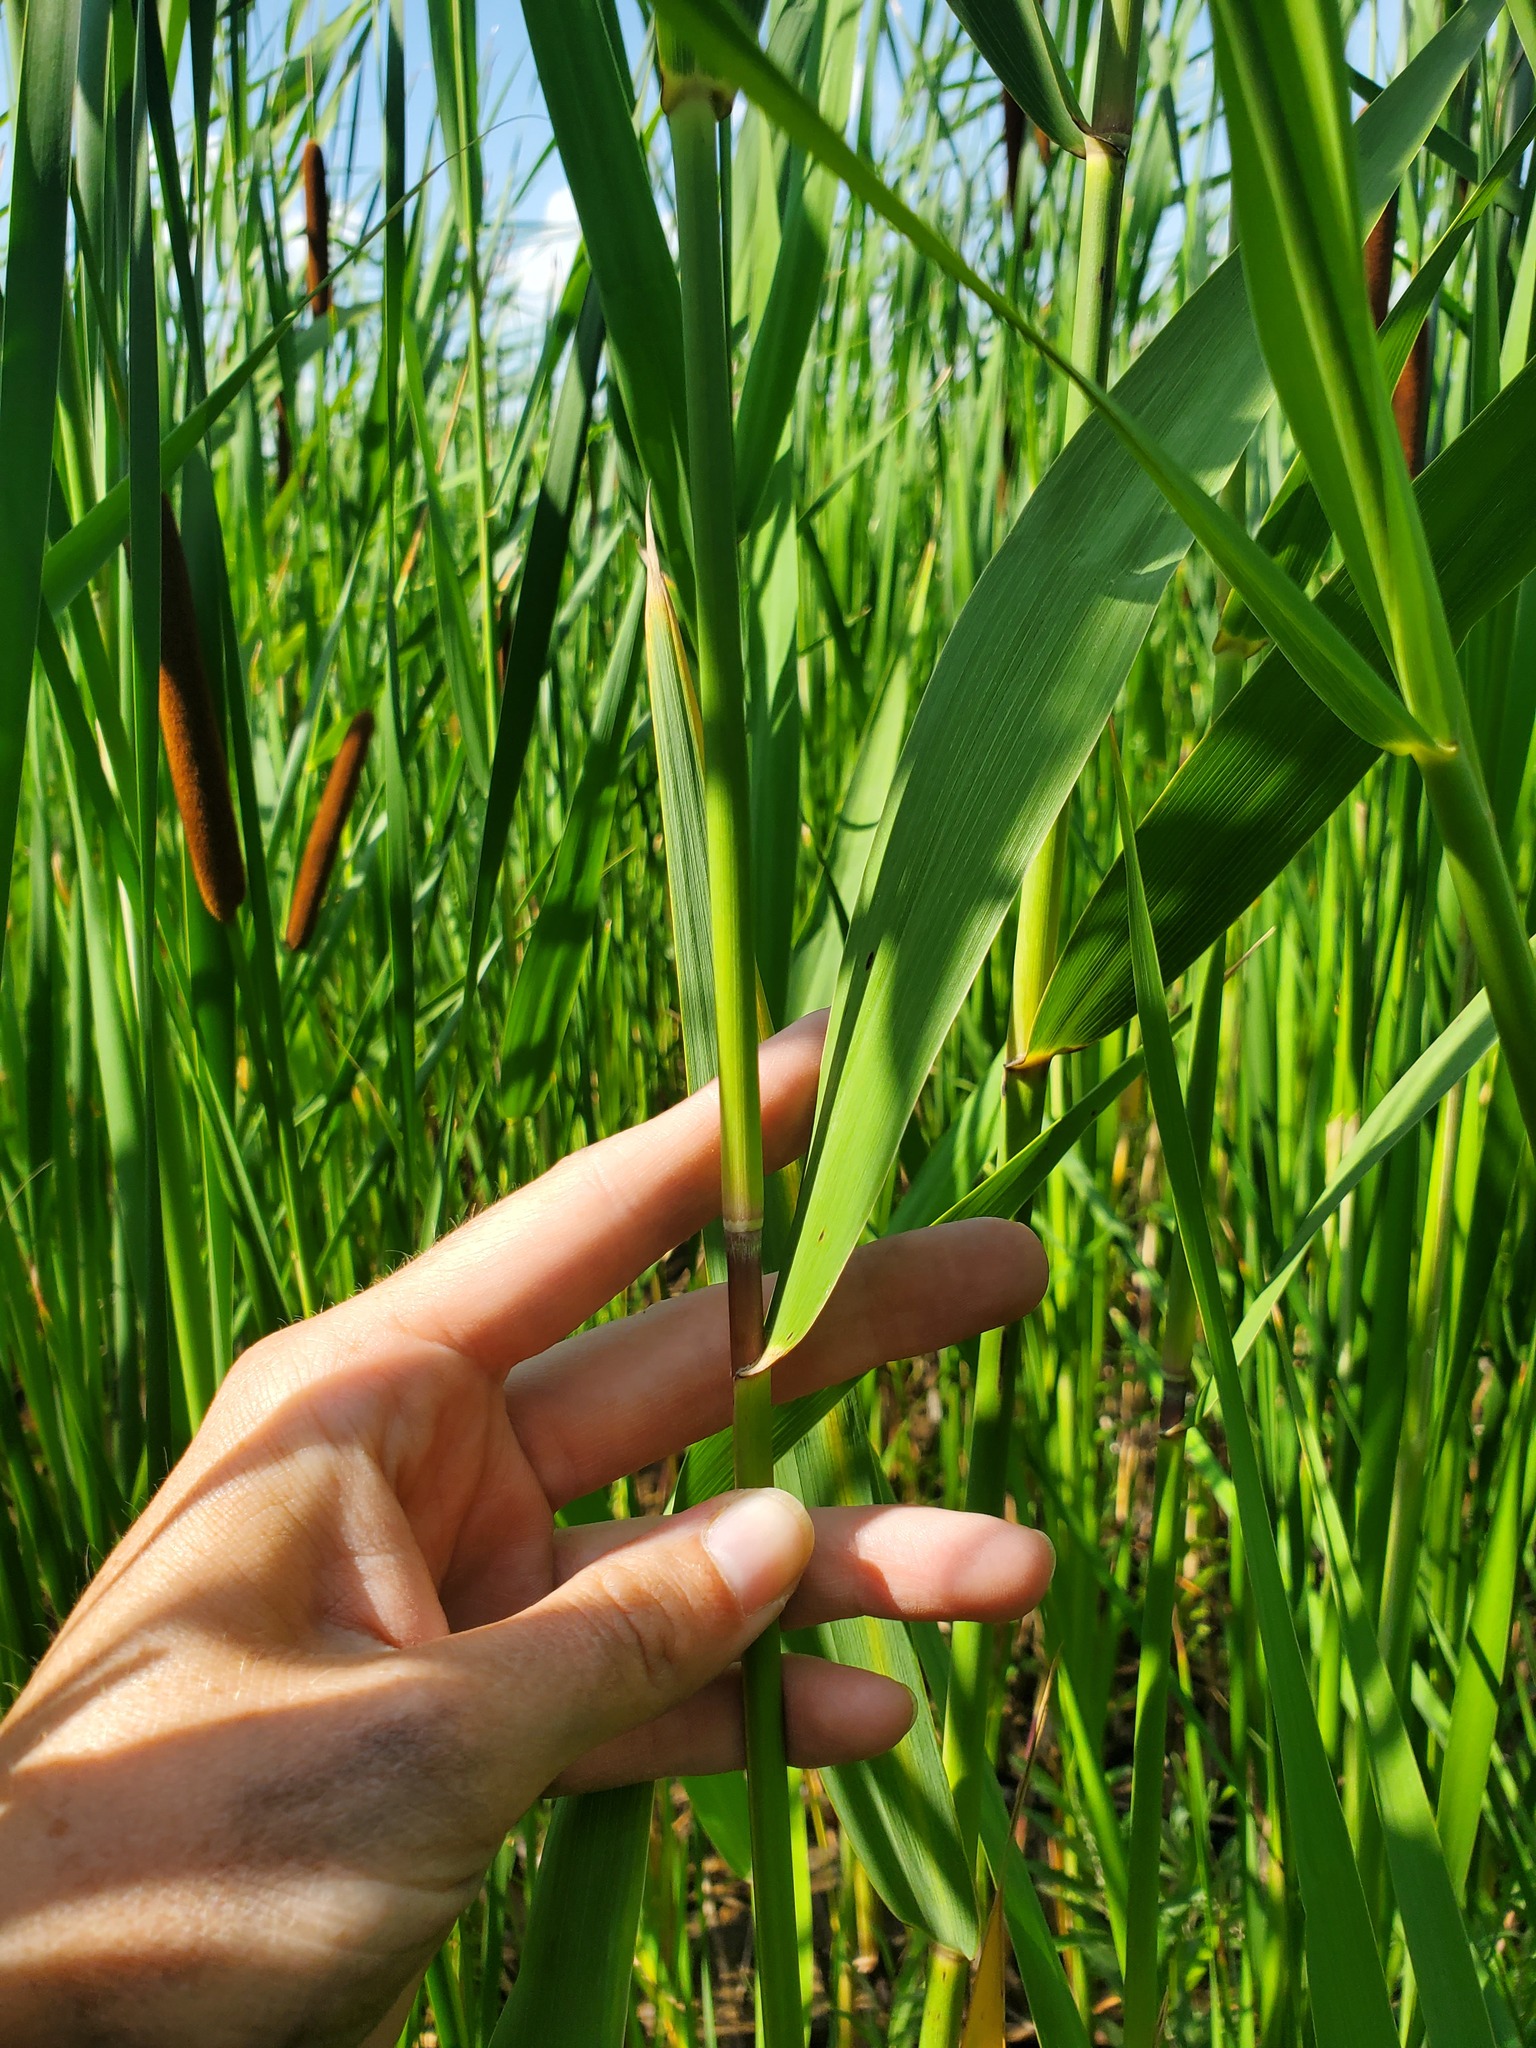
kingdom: Plantae
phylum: Tracheophyta
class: Liliopsida
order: Poales
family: Poaceae
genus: Phragmites
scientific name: Phragmites australis
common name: Common reed
